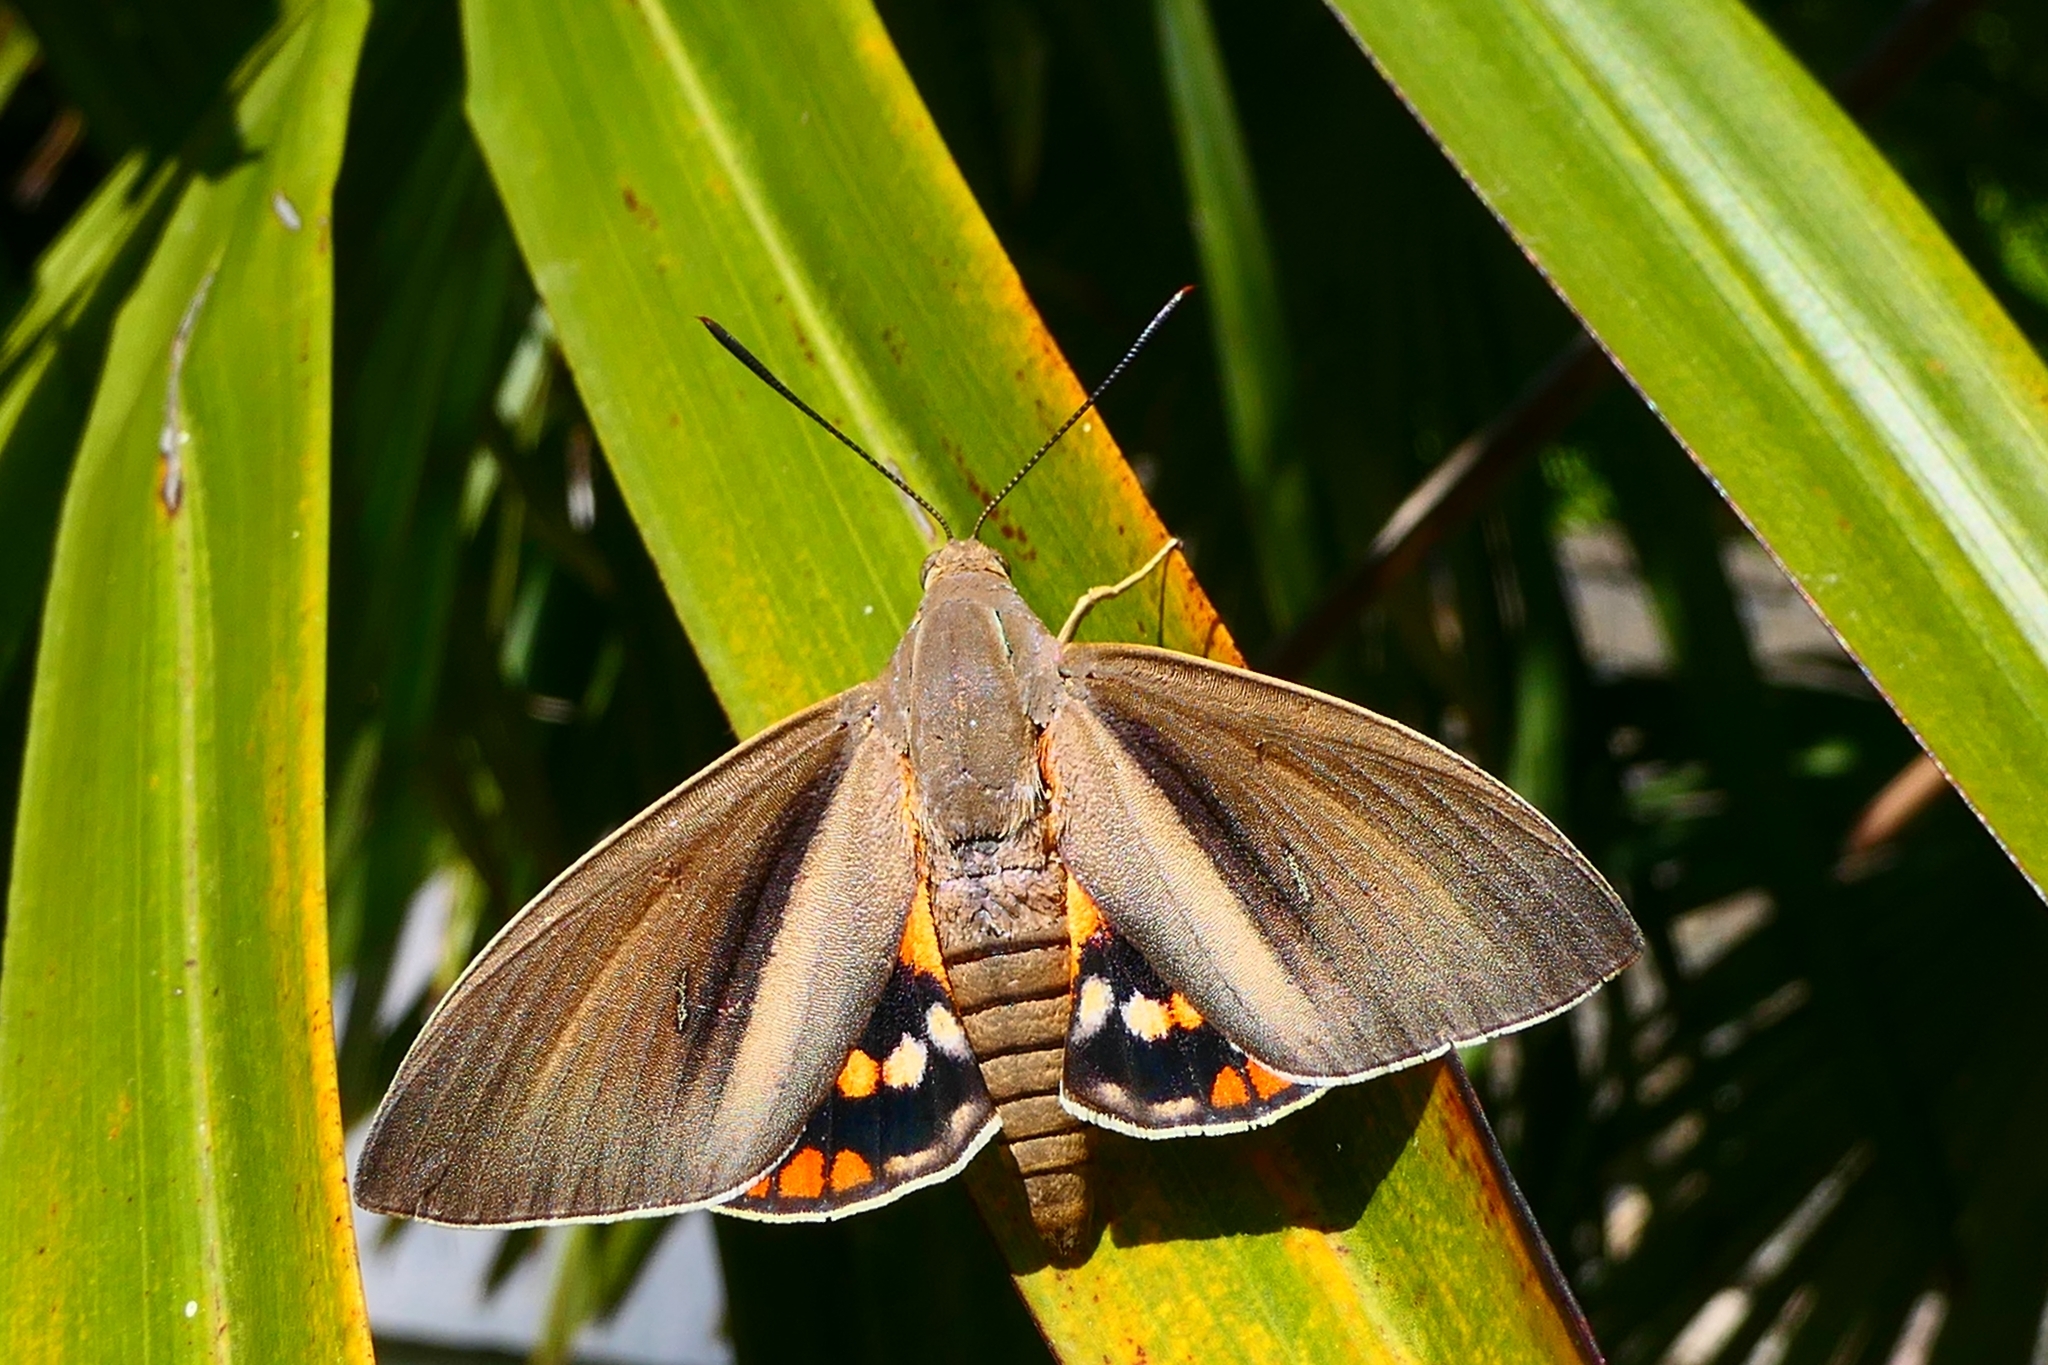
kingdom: Animalia
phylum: Arthropoda
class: Insecta
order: Lepidoptera
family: Castniidae
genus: Paysandisia
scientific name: Paysandisia archon
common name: Palm moth
